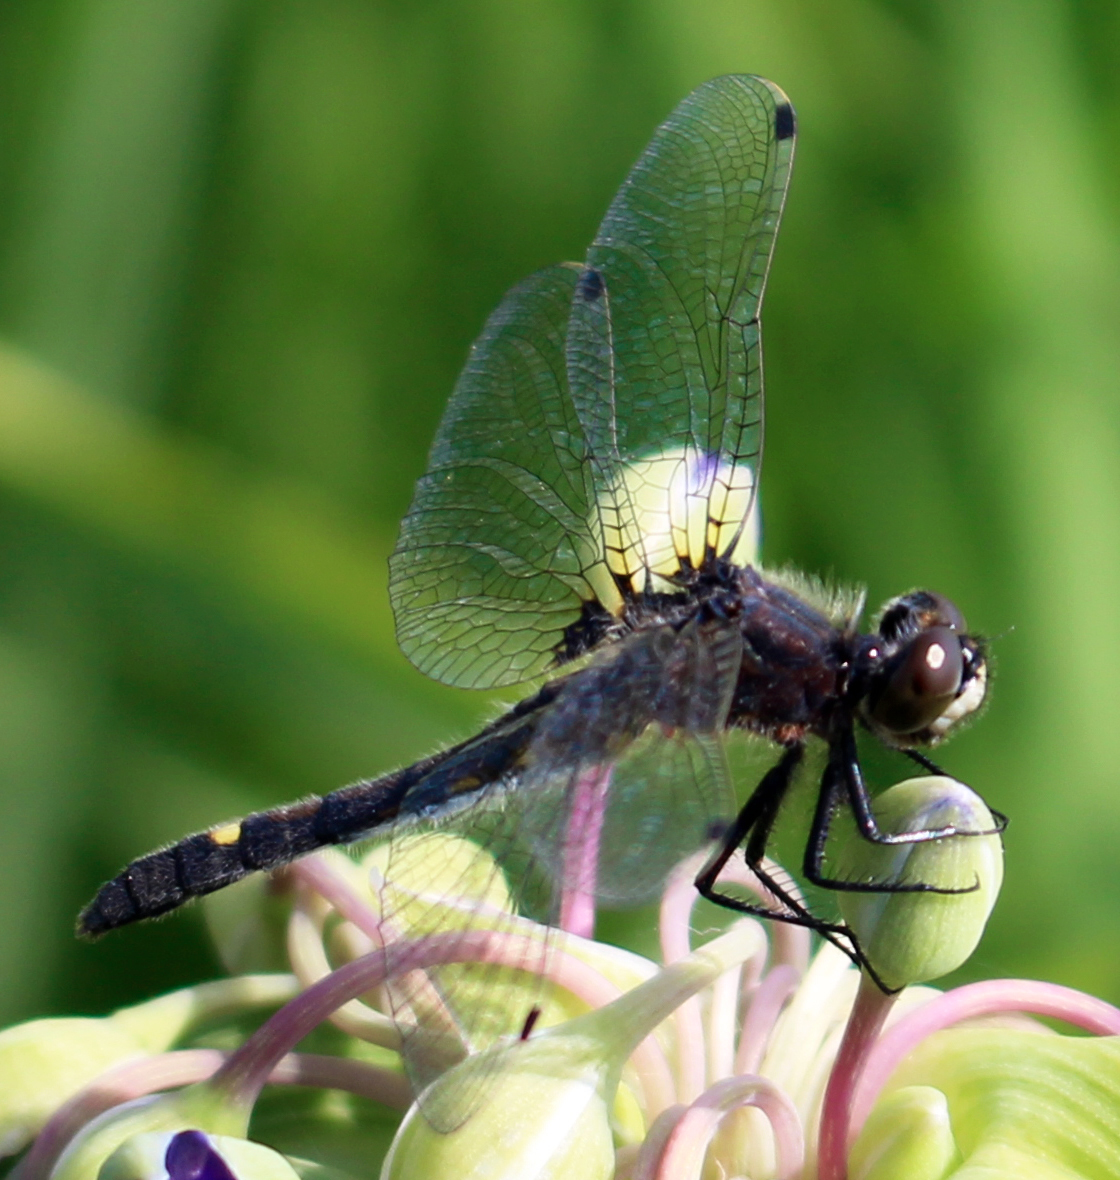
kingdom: Animalia
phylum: Arthropoda
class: Insecta
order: Odonata
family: Libellulidae
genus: Leucorrhinia
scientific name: Leucorrhinia intacta
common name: Dot-tailed whiteface
